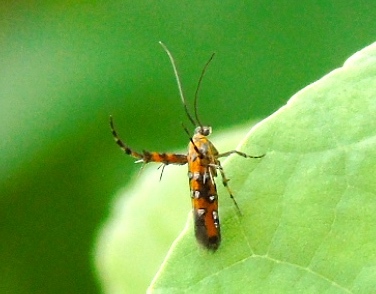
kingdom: Animalia
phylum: Arthropoda
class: Insecta
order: Lepidoptera
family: Heliodinidae
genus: Heliodines
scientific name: Heliodines
